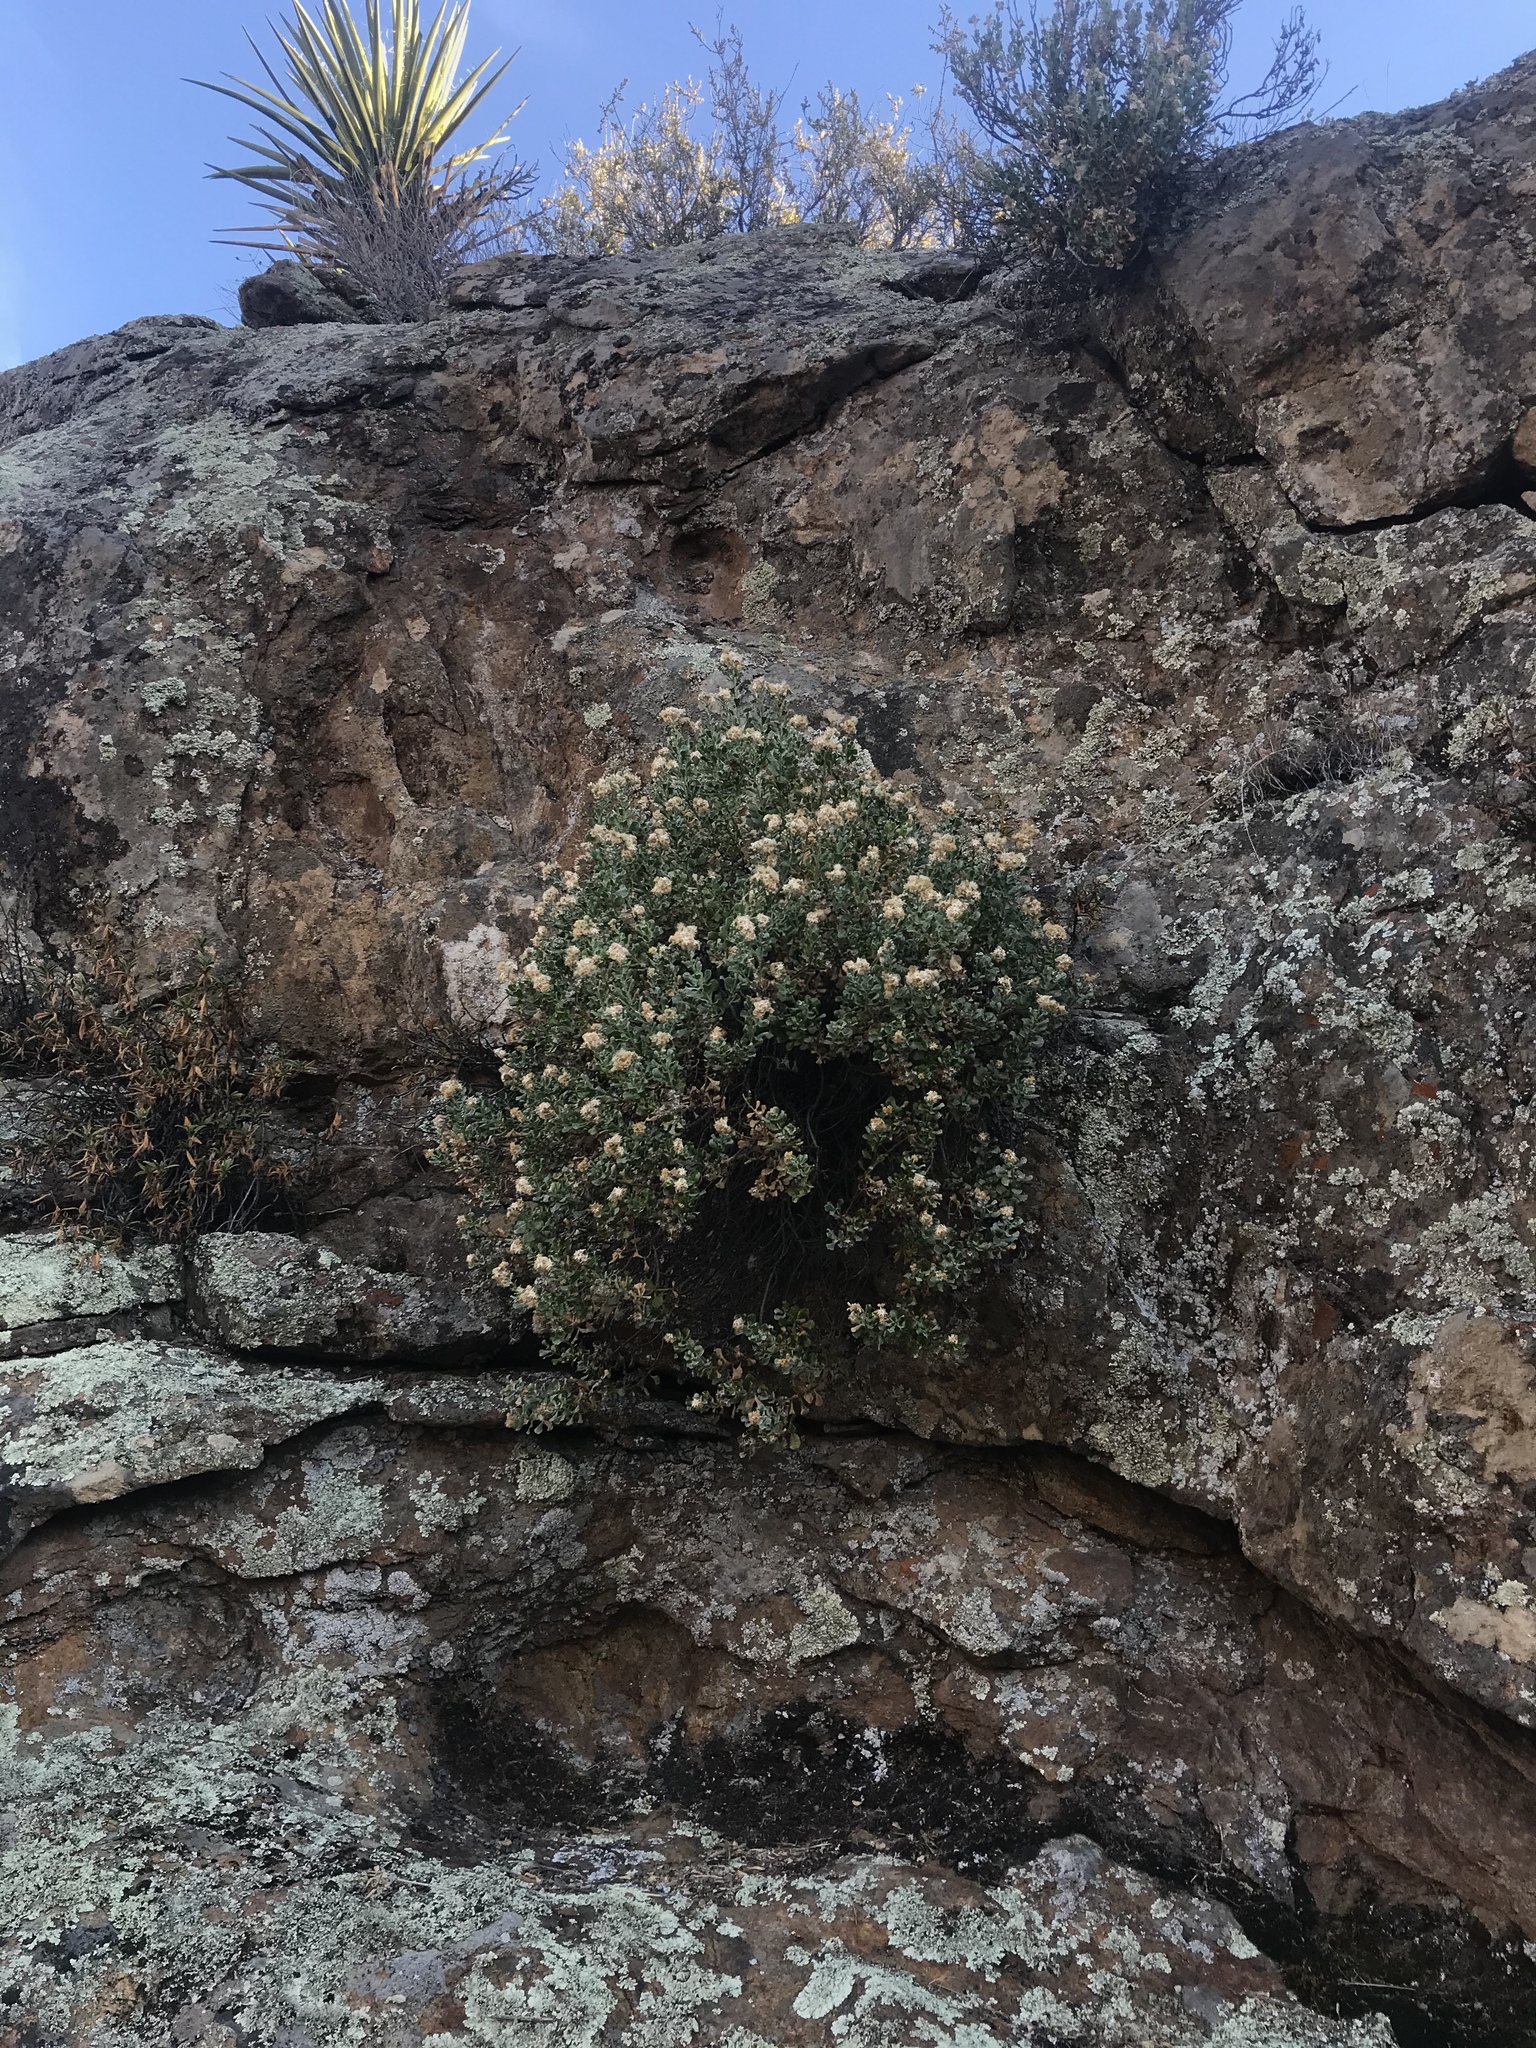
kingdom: Plantae
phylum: Tracheophyta
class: Magnoliopsida
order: Asterales
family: Asteraceae
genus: Ericameria
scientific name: Ericameria cuneata
